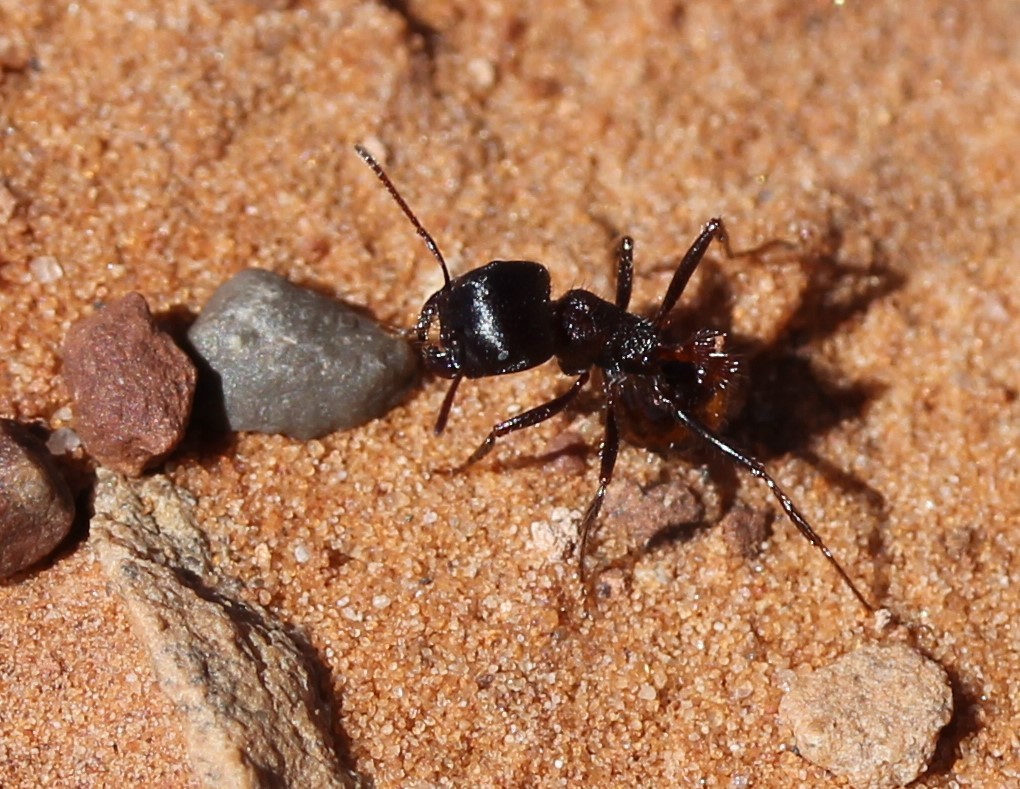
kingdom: Animalia
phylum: Arthropoda
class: Insecta
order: Hymenoptera
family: Formicidae
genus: Pogonomyrmex
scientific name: Pogonomyrmex rugosus
